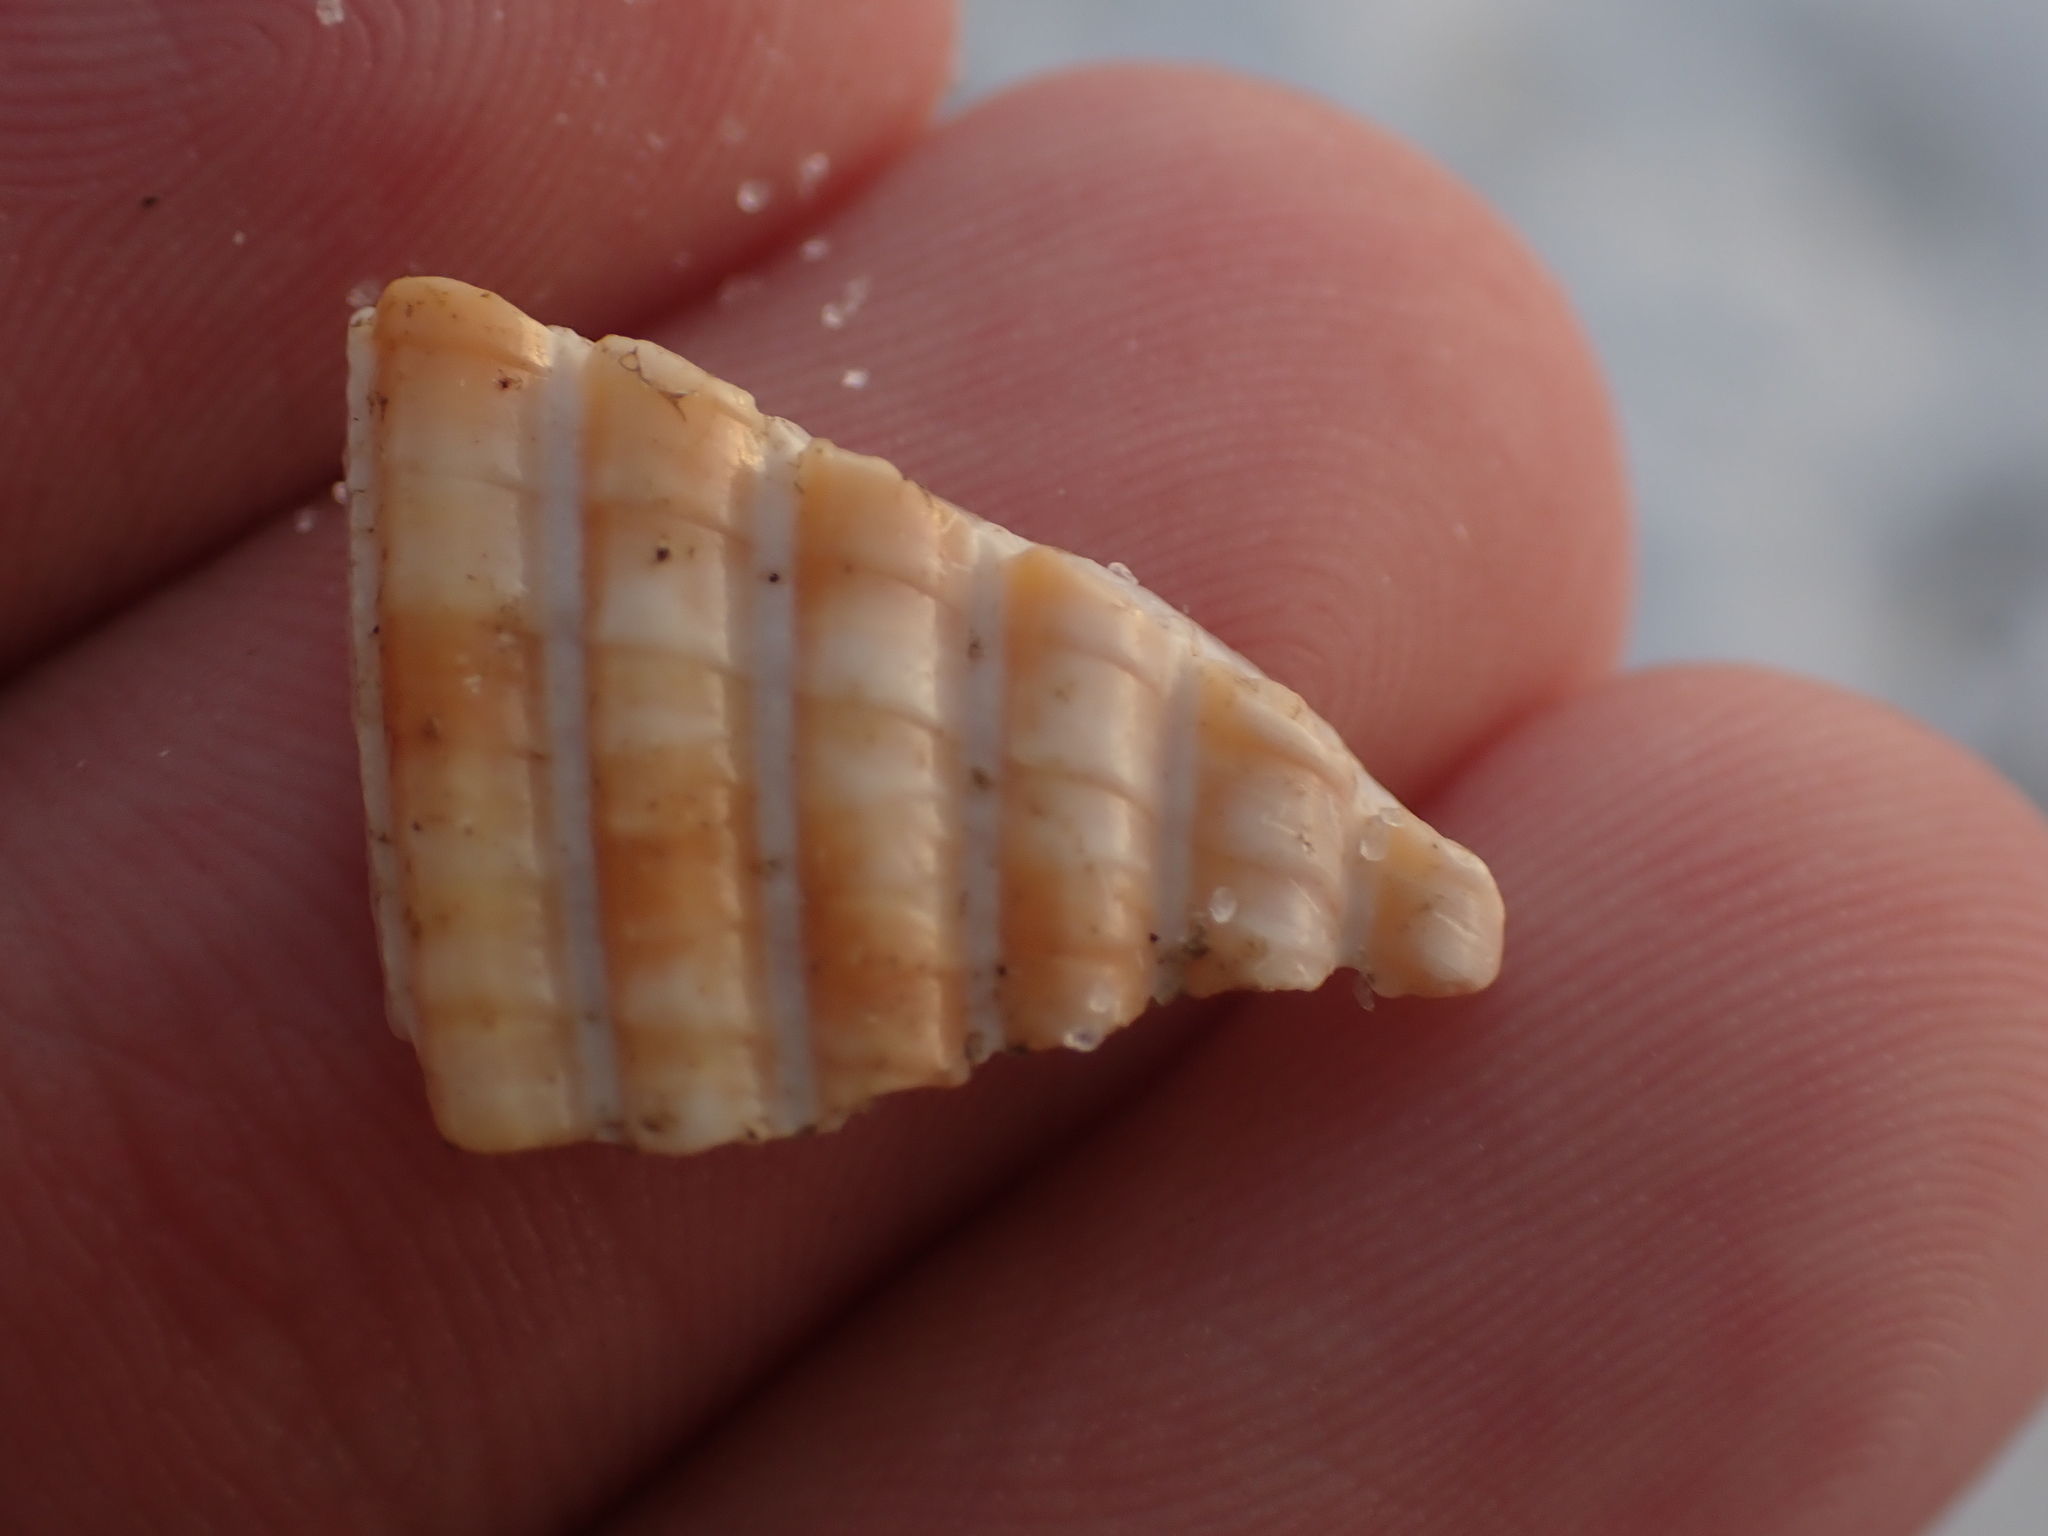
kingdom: Animalia
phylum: Mollusca
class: Bivalvia
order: Cardiida
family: Cardiidae
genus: Dinocardium
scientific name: Dinocardium robustum
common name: Atlantic giant cockle
